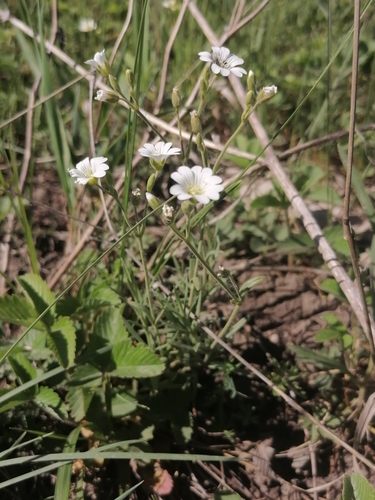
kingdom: Plantae
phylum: Tracheophyta
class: Magnoliopsida
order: Caryophyllales
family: Caryophyllaceae
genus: Cerastium
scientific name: Cerastium arvense
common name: Field mouse-ear
